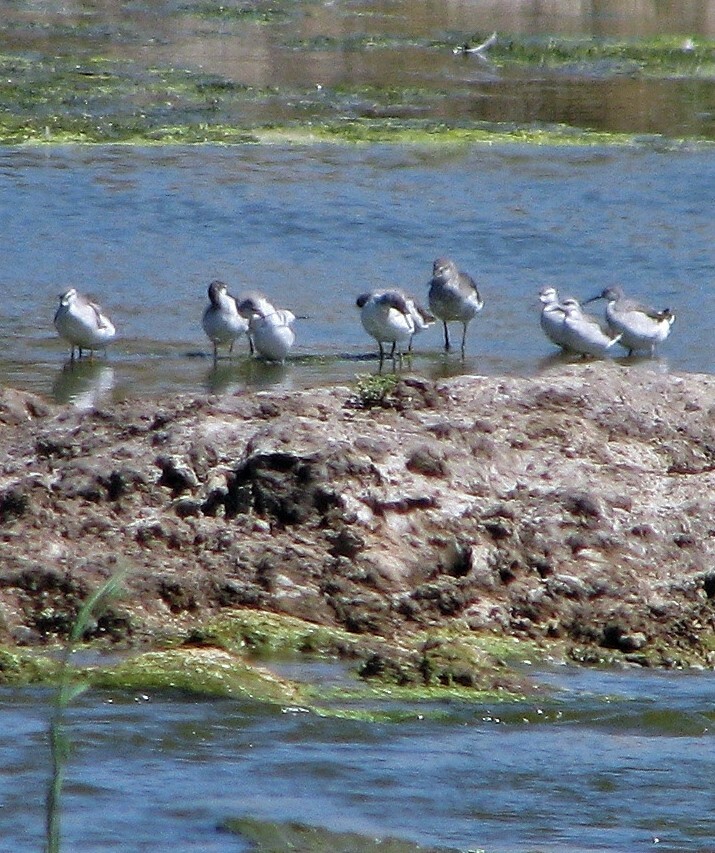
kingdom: Animalia
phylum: Chordata
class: Aves
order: Charadriiformes
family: Scolopacidae
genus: Phalaropus
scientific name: Phalaropus tricolor
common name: Wilson's phalarope
